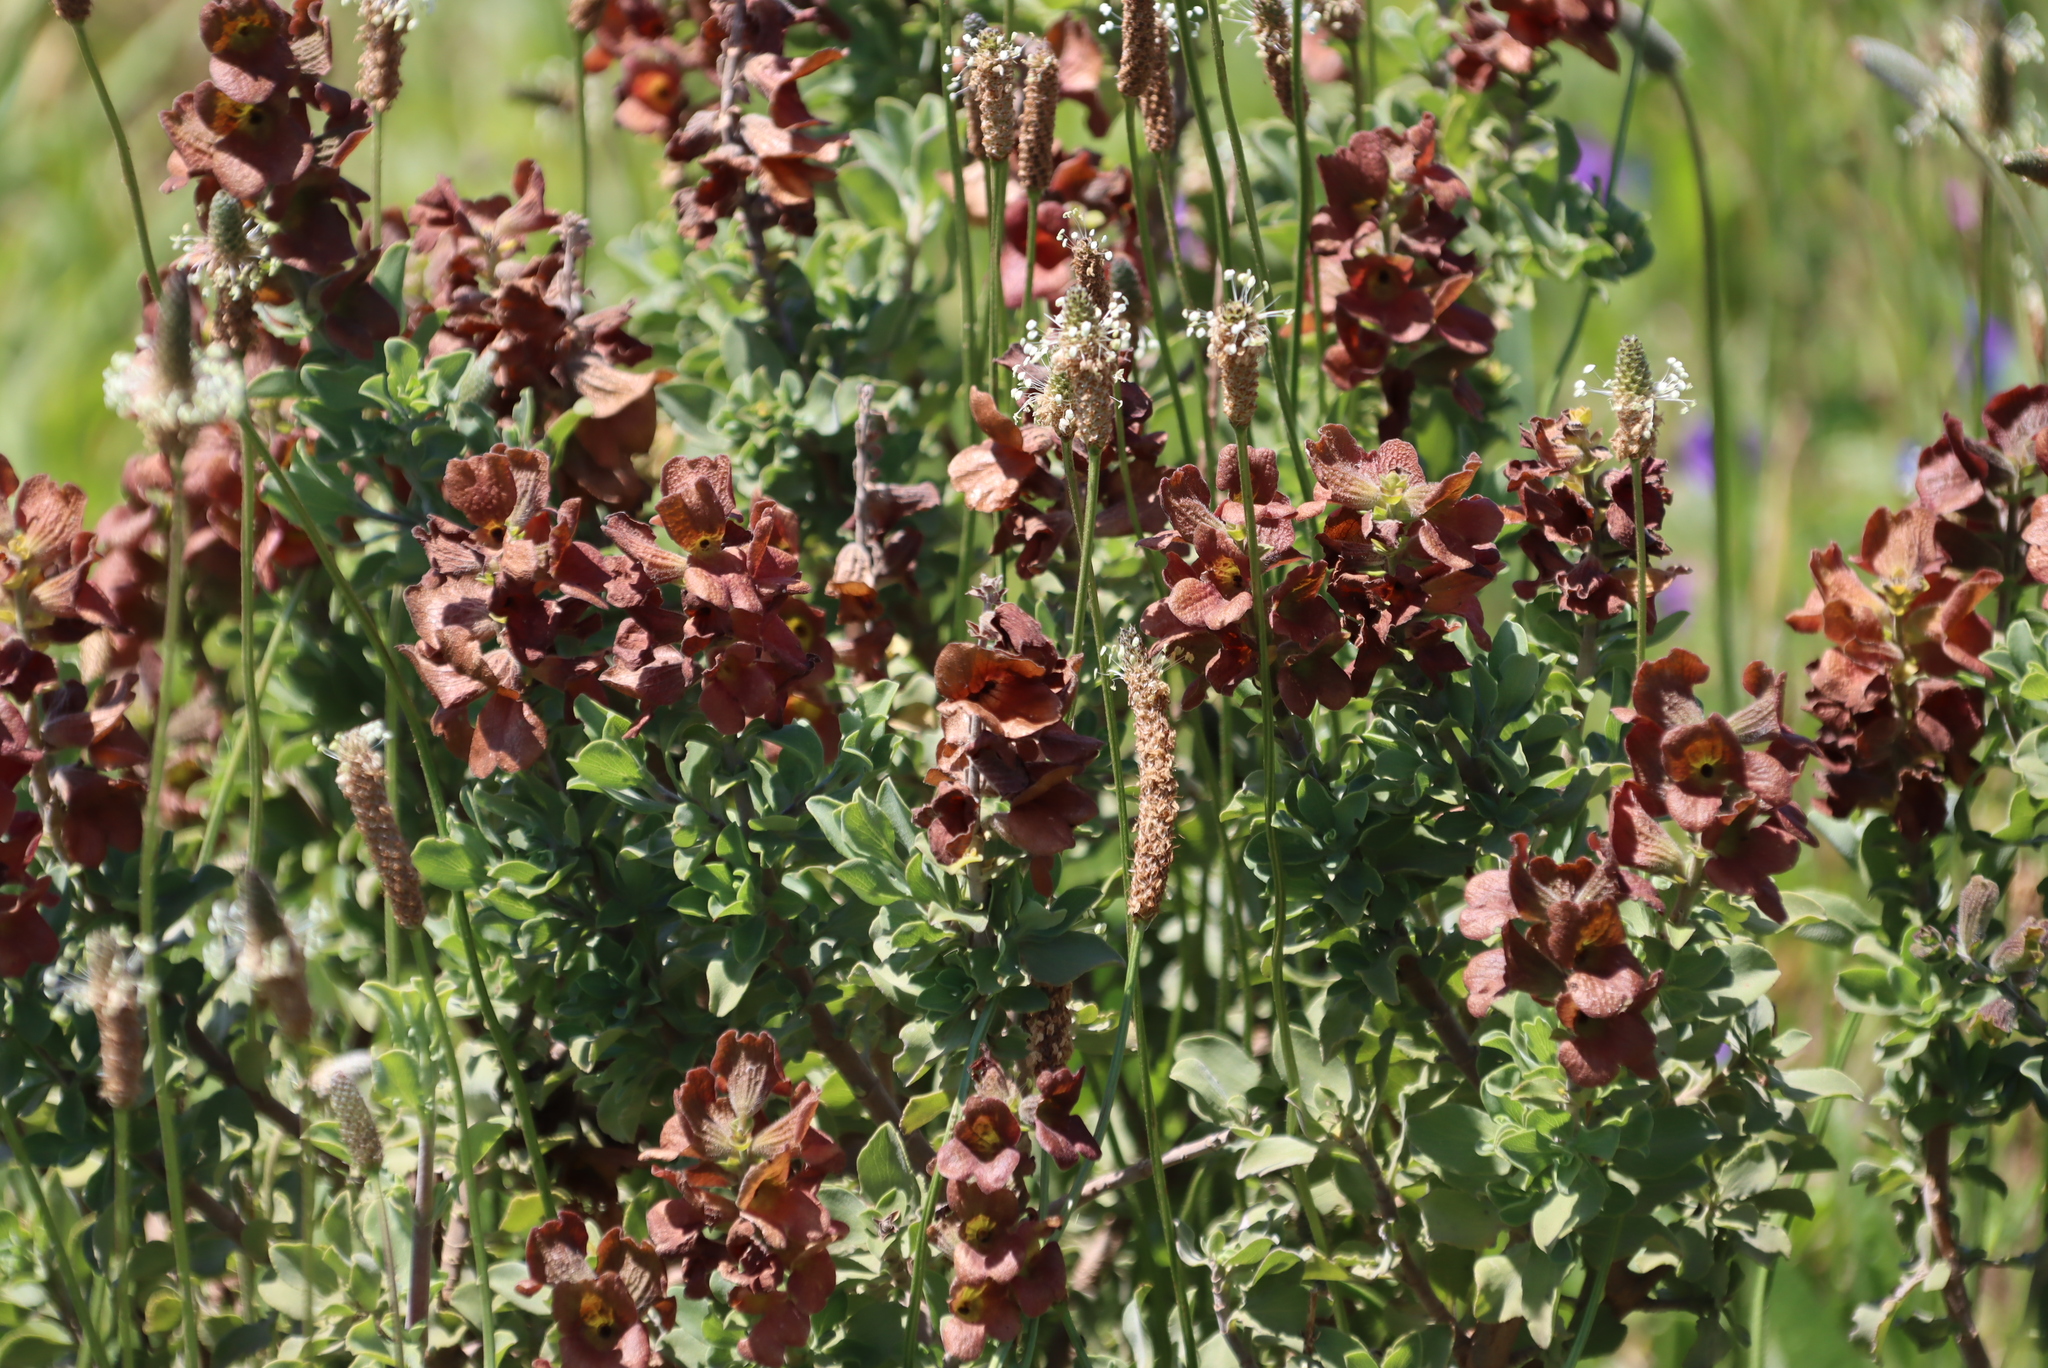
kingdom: Plantae
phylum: Tracheophyta
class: Magnoliopsida
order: Lamiales
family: Lamiaceae
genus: Salvia
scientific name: Salvia aurea
